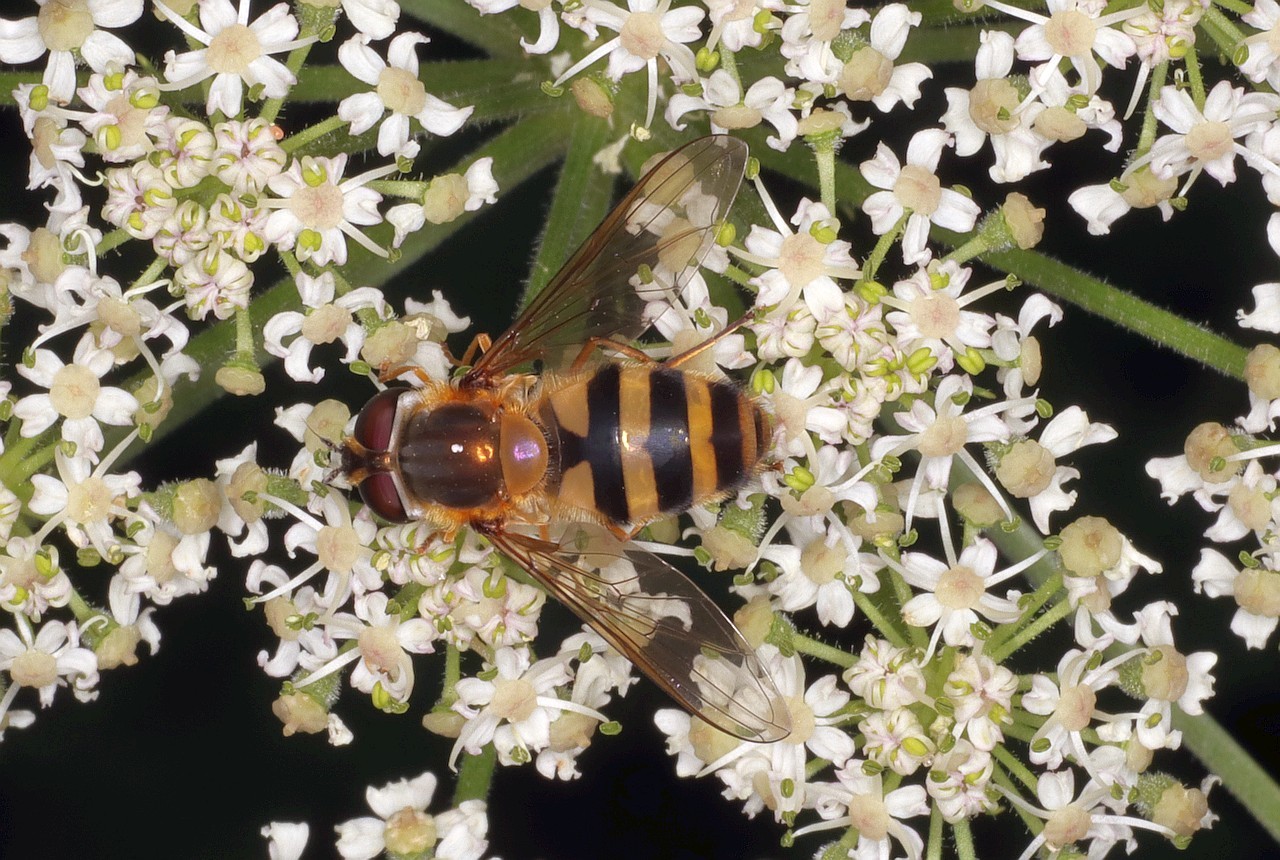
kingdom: Animalia
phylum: Arthropoda
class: Insecta
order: Diptera
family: Syrphidae
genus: Epistrophe
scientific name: Epistrophe grossulariae
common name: Black-horned smoothtail
